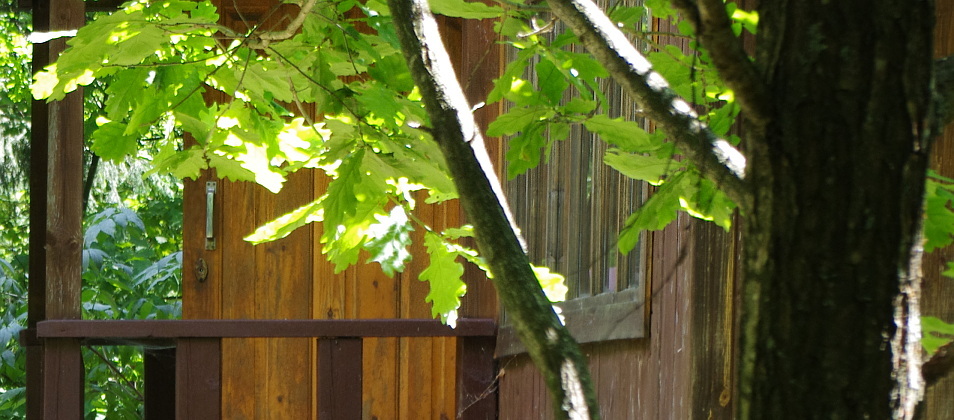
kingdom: Plantae
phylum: Tracheophyta
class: Magnoliopsida
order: Fagales
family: Fagaceae
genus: Quercus
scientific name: Quercus robur
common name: Pedunculate oak
